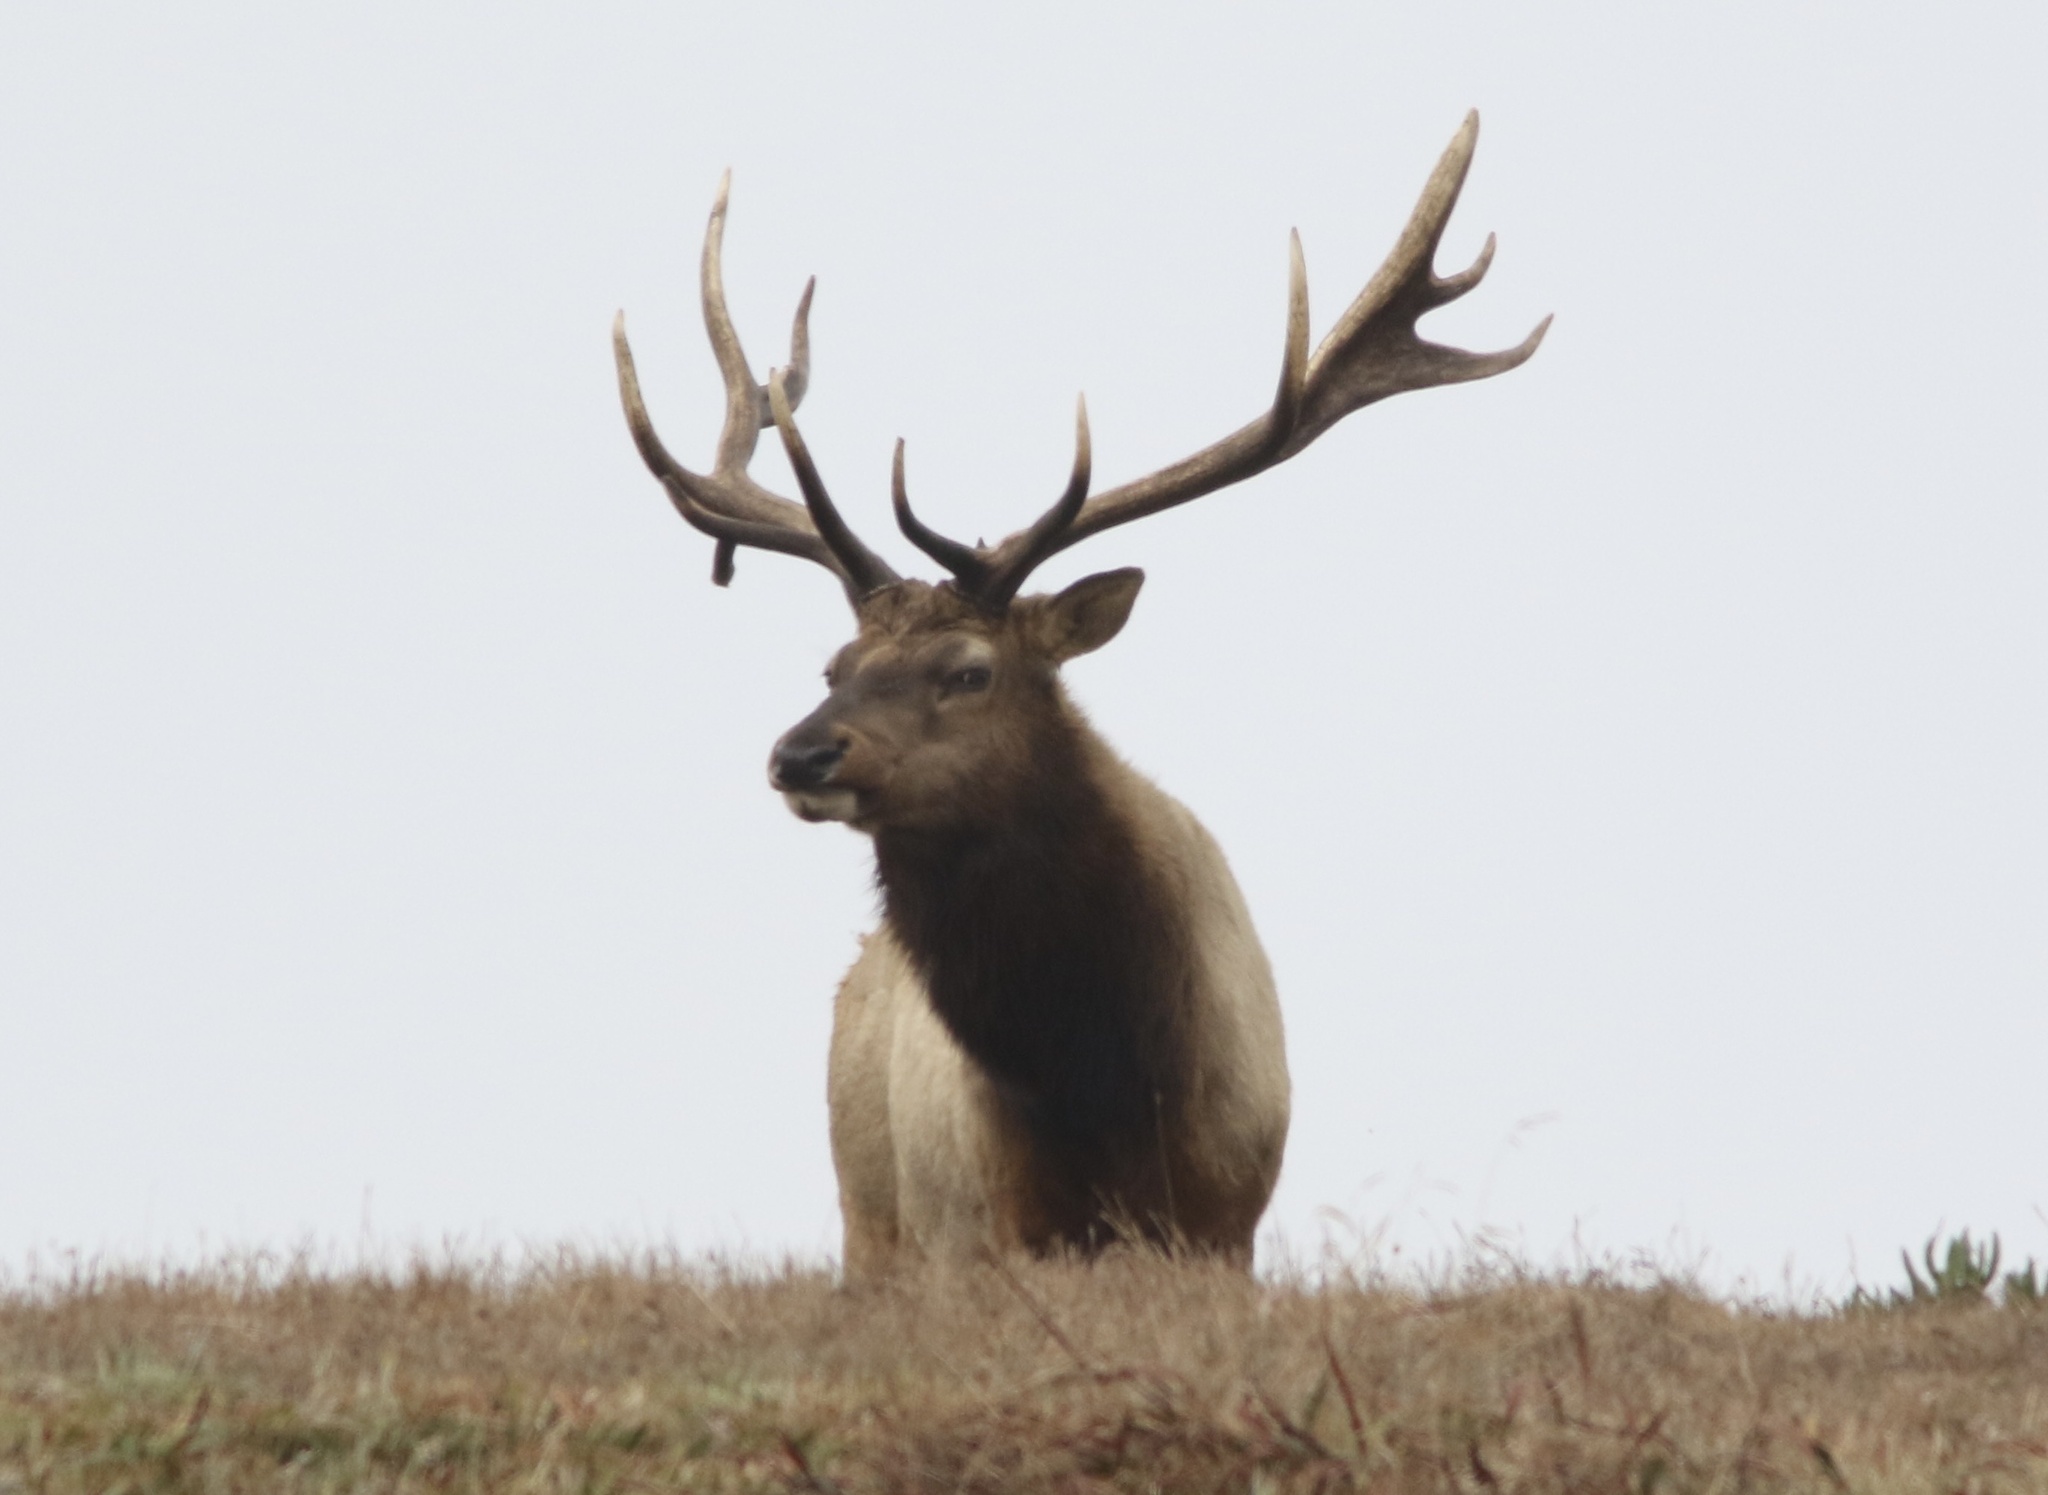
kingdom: Animalia
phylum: Chordata
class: Mammalia
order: Artiodactyla
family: Cervidae
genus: Cervus
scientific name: Cervus elaphus
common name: Red deer
